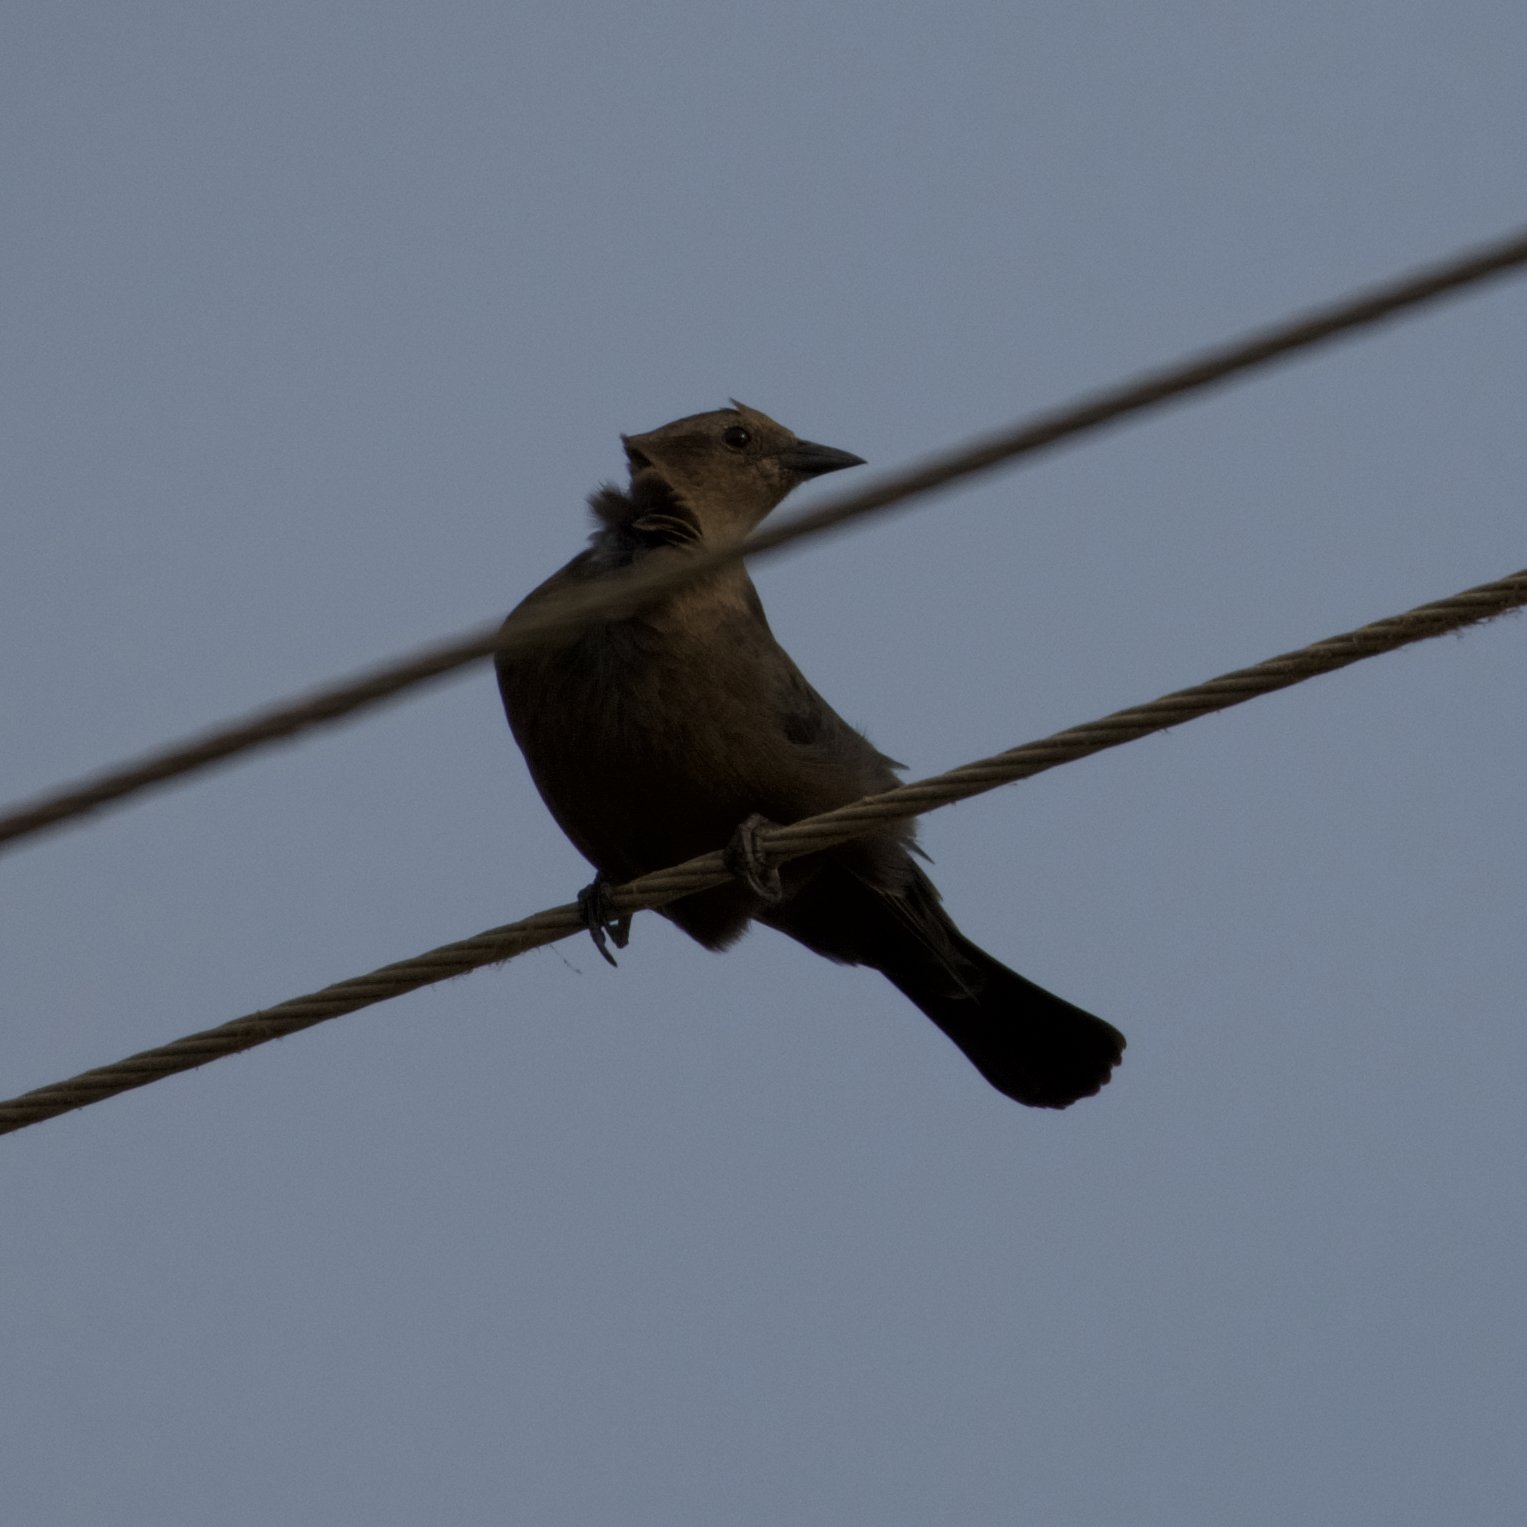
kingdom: Animalia
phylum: Chordata
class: Aves
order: Passeriformes
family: Icteridae
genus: Euphagus
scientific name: Euphagus cyanocephalus
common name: Brewer's blackbird
